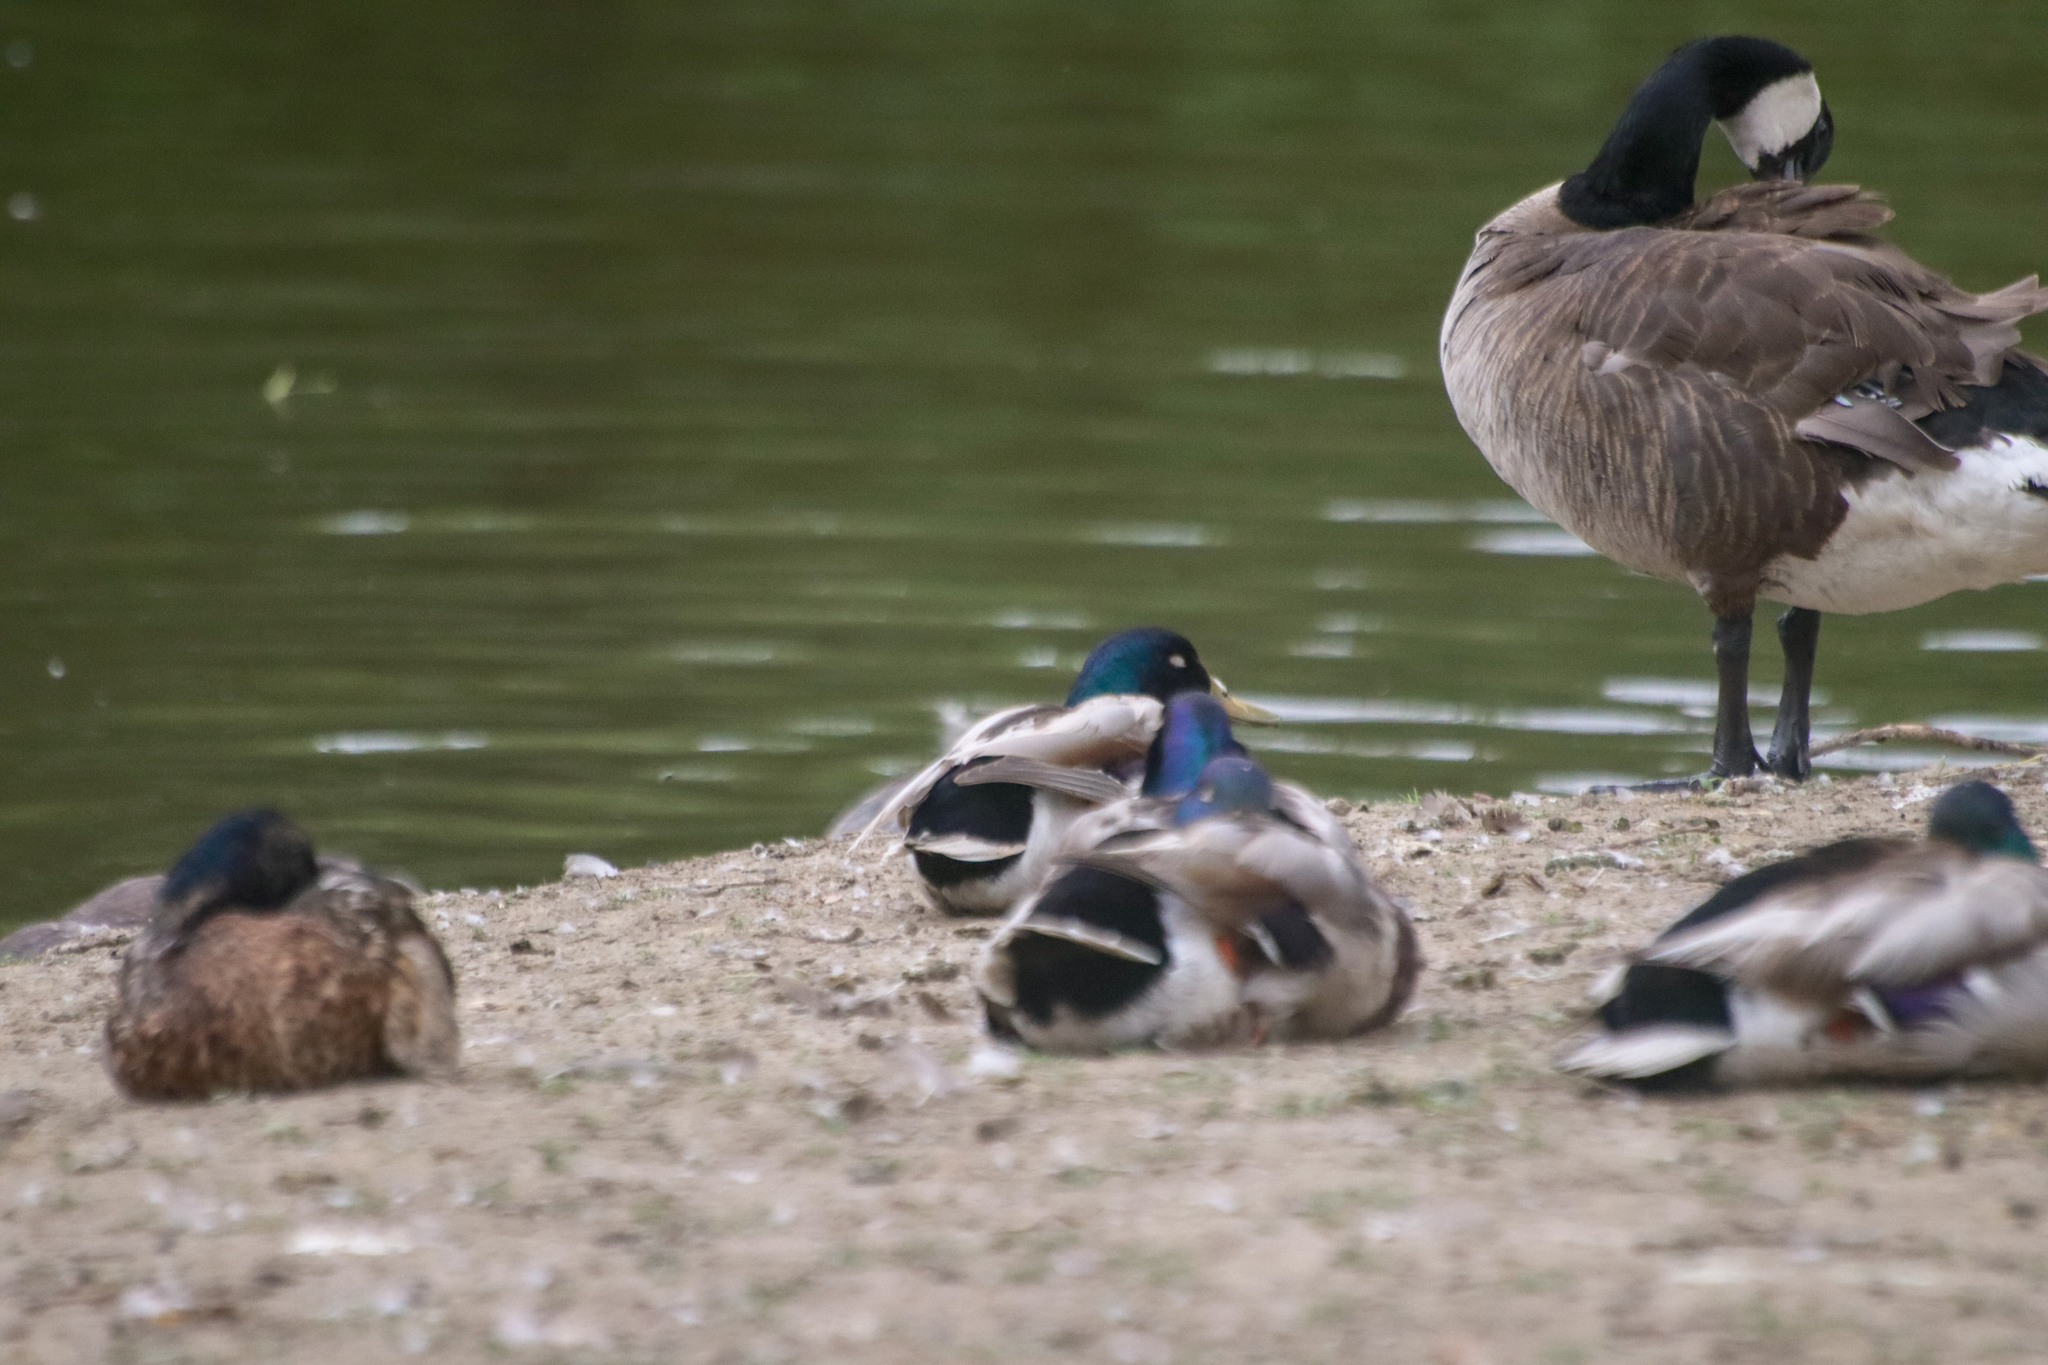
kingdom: Animalia
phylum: Chordata
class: Aves
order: Anseriformes
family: Anatidae
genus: Anas
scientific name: Anas platyrhynchos
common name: Mallard
